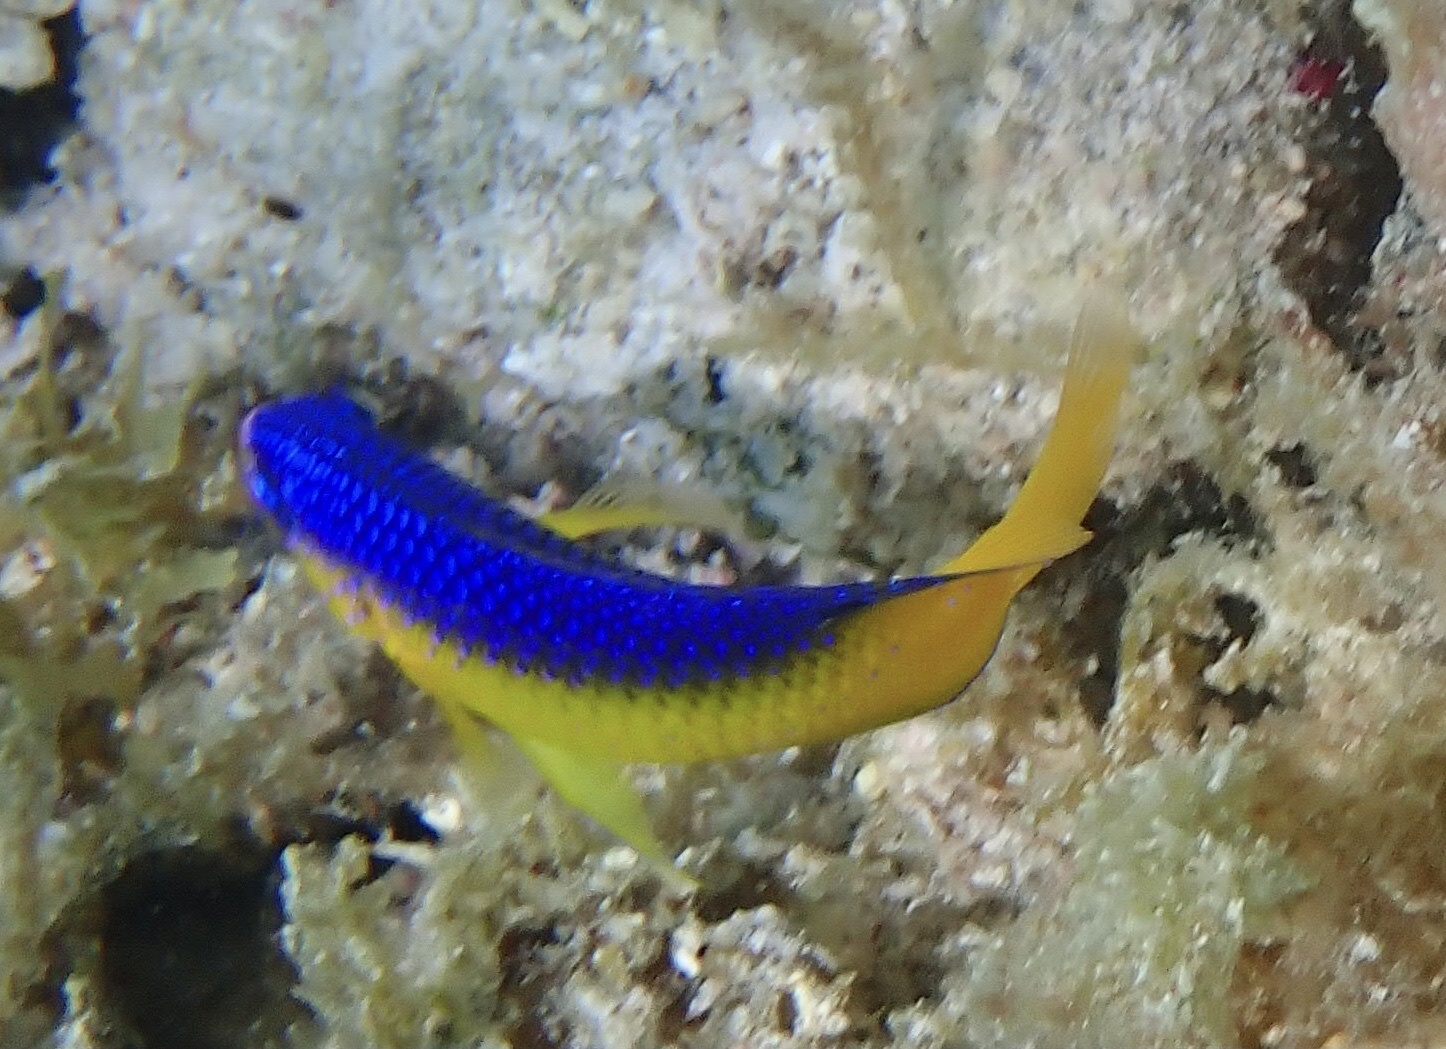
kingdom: Animalia
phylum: Chordata
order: Perciformes
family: Pomacentridae
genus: Stegastes
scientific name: Stegastes leucostictus
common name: Beaugregory
